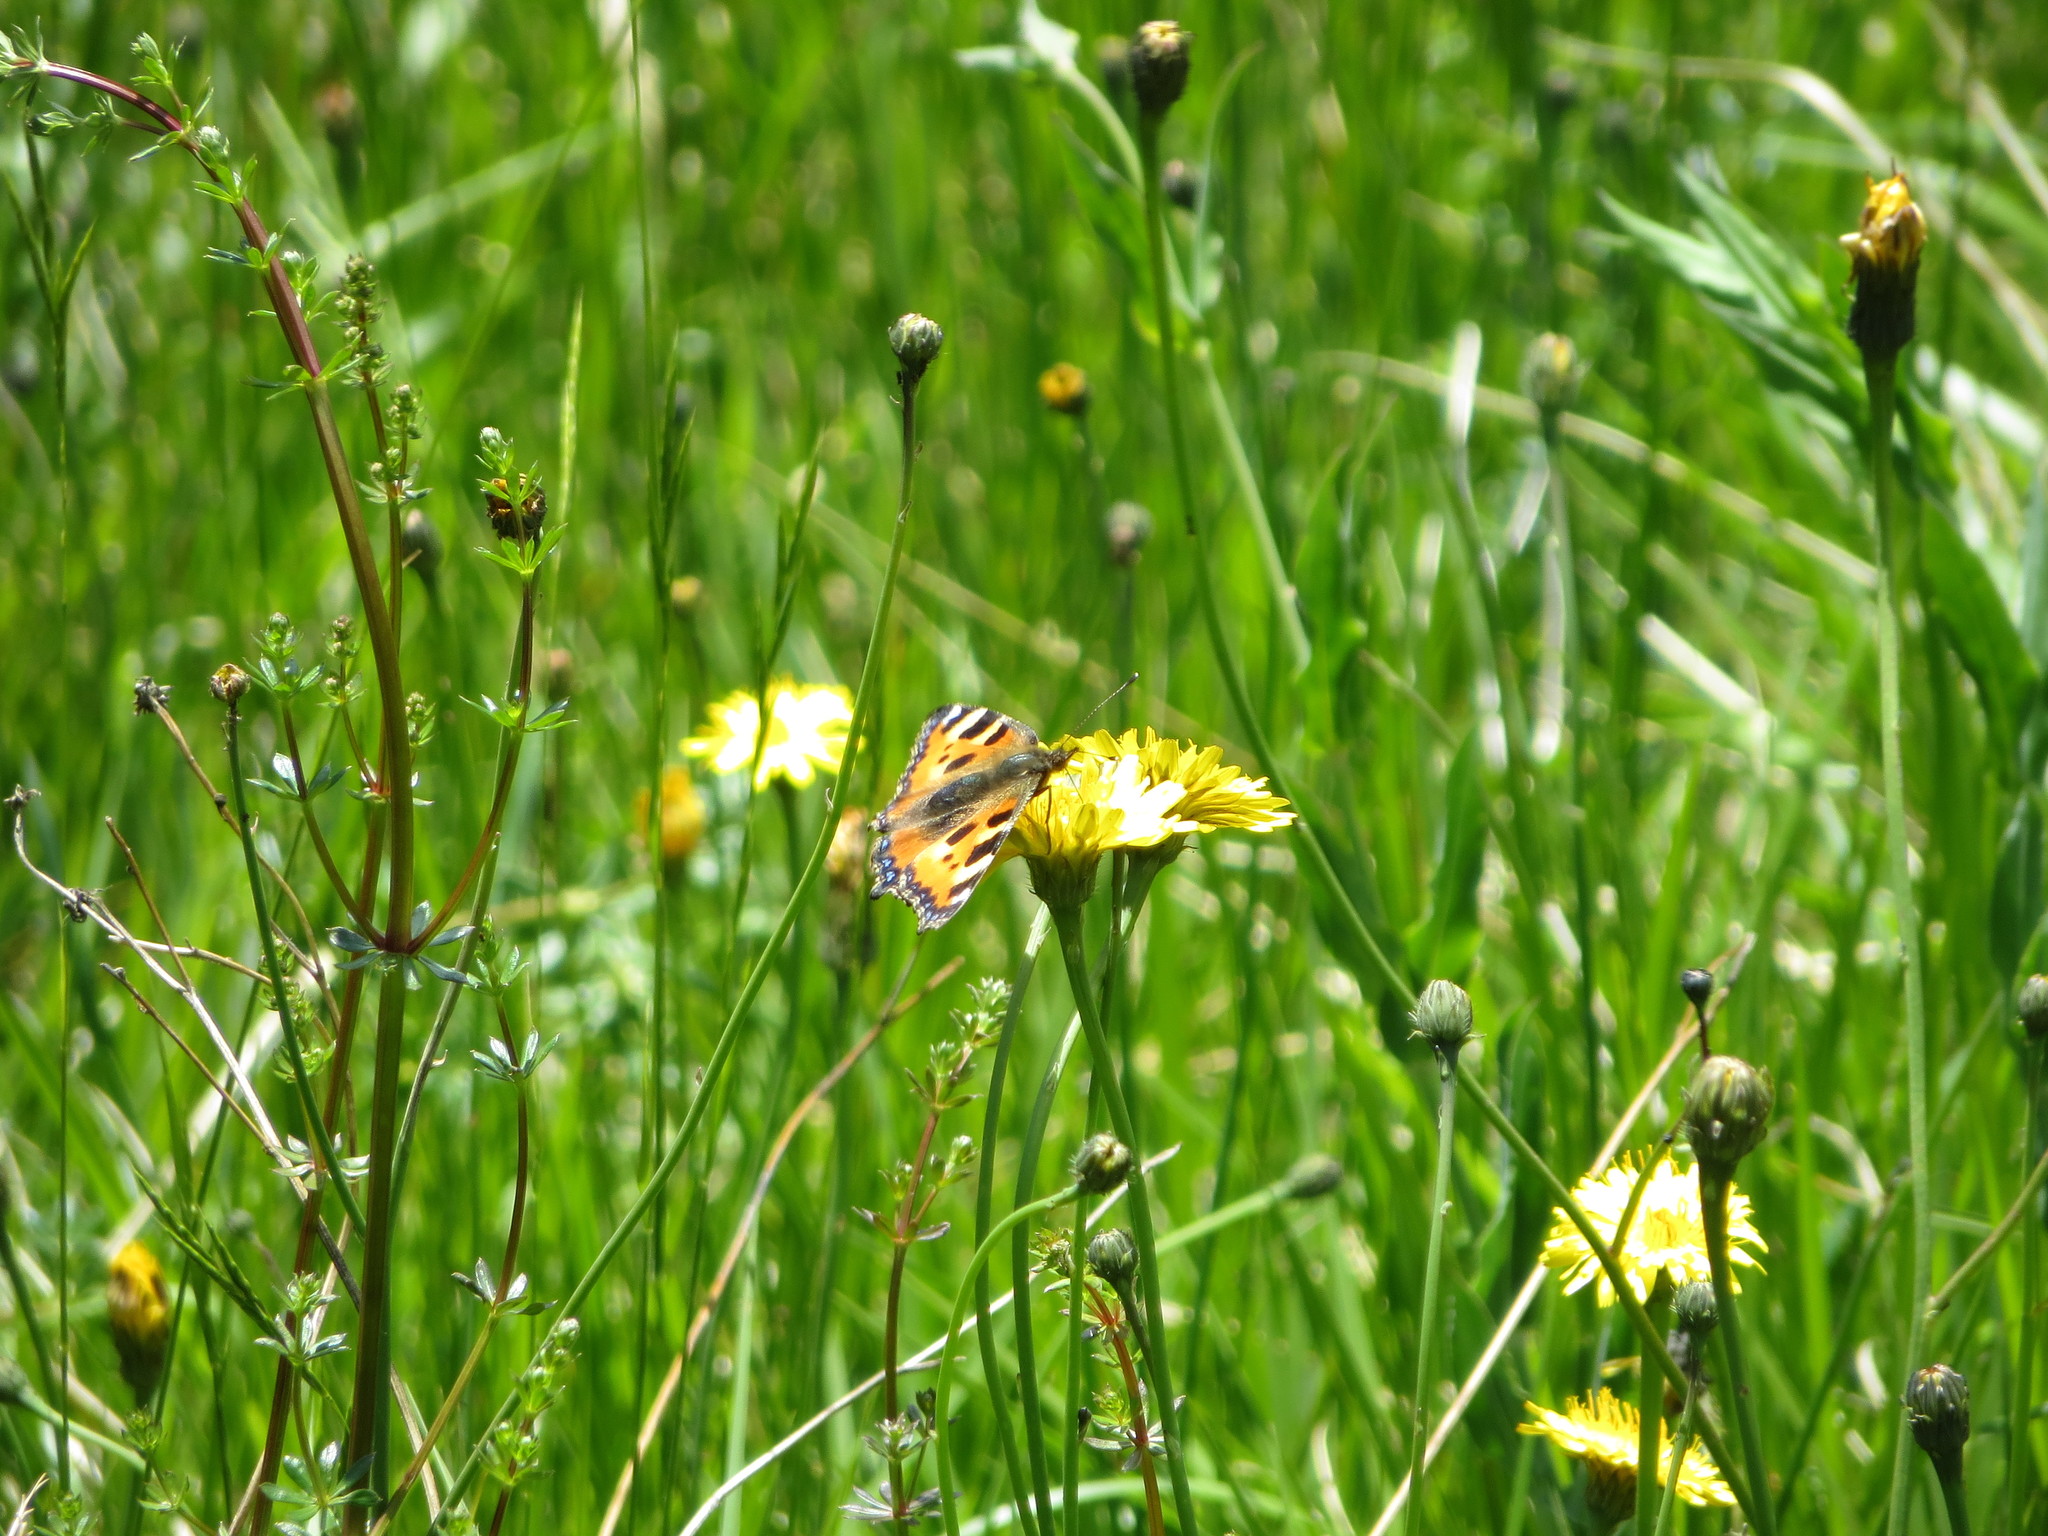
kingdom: Animalia
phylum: Arthropoda
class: Insecta
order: Lepidoptera
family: Nymphalidae
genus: Aglais
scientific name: Aglais urticae
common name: Small tortoiseshell
